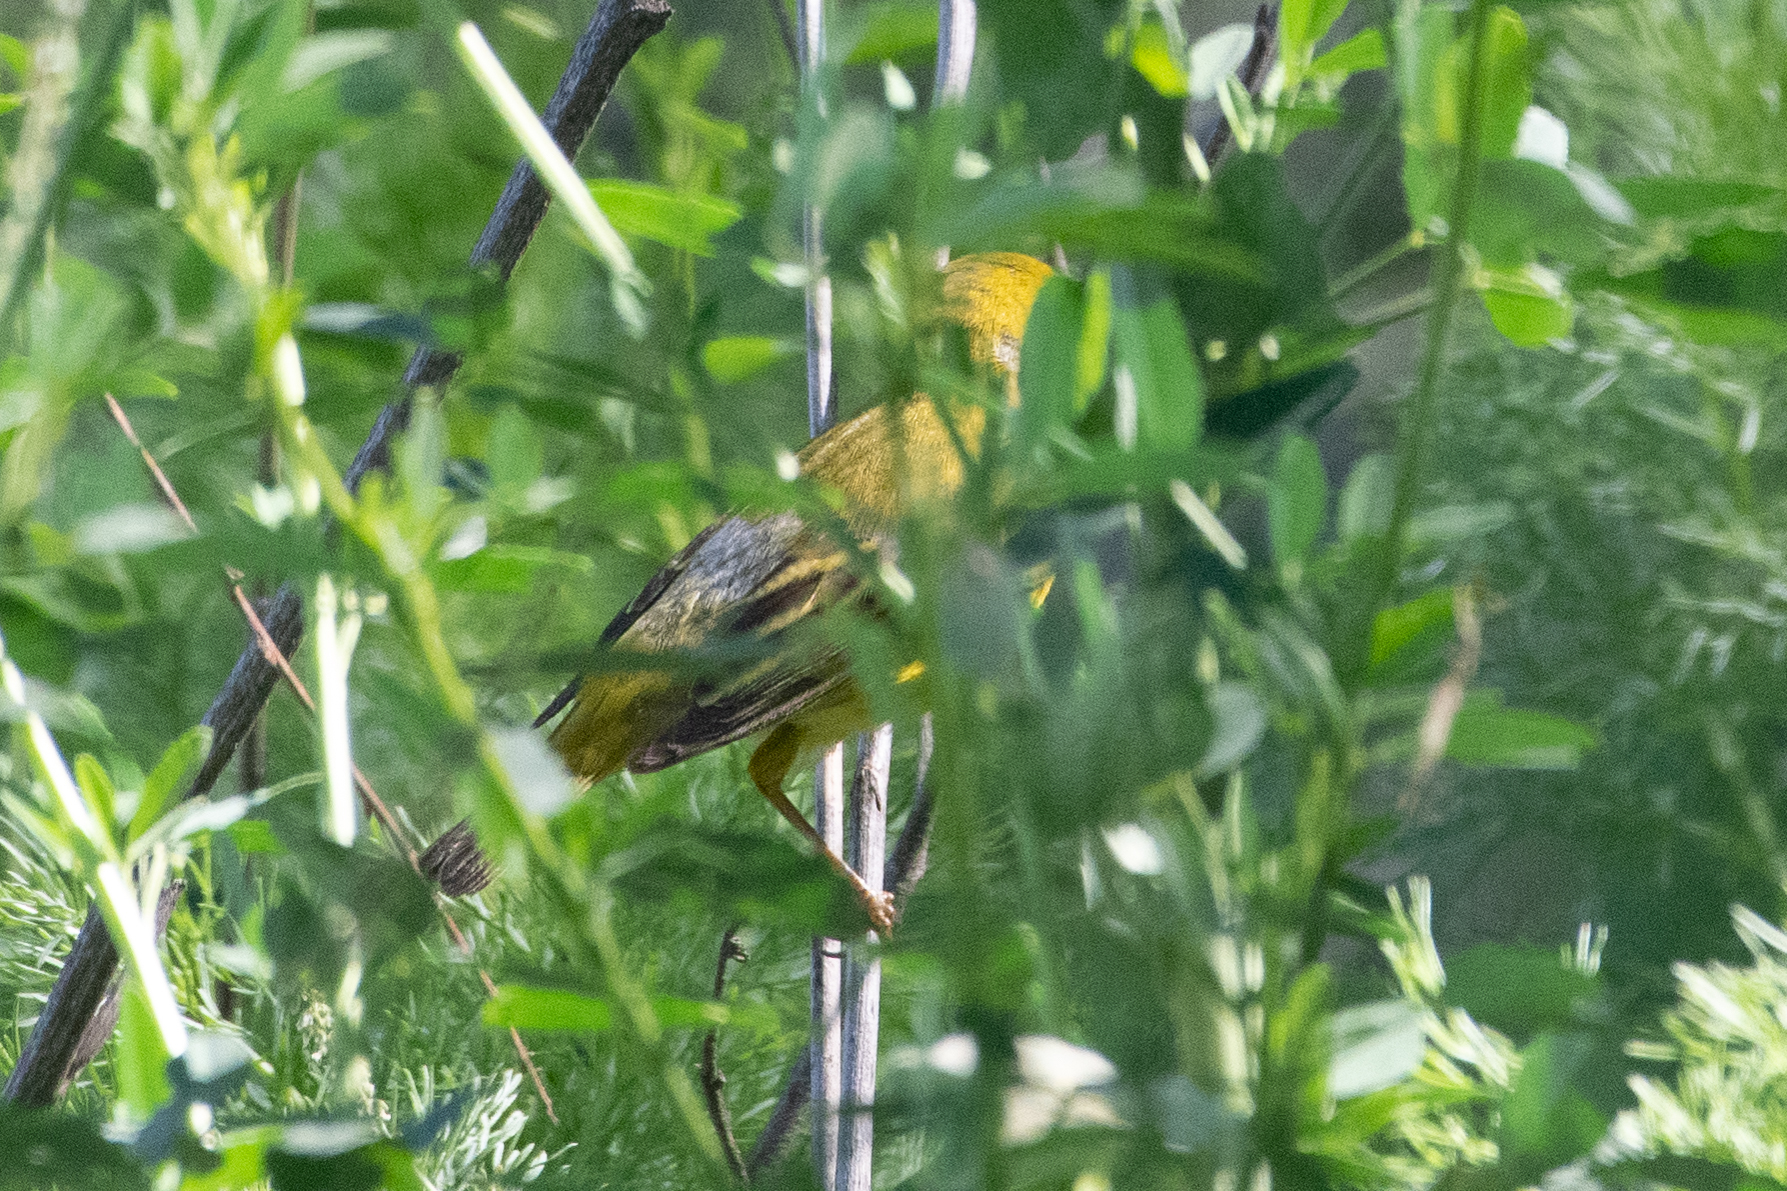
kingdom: Animalia
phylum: Chordata
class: Aves
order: Passeriformes
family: Parulidae
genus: Setophaga
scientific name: Setophaga petechia
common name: Yellow warbler
